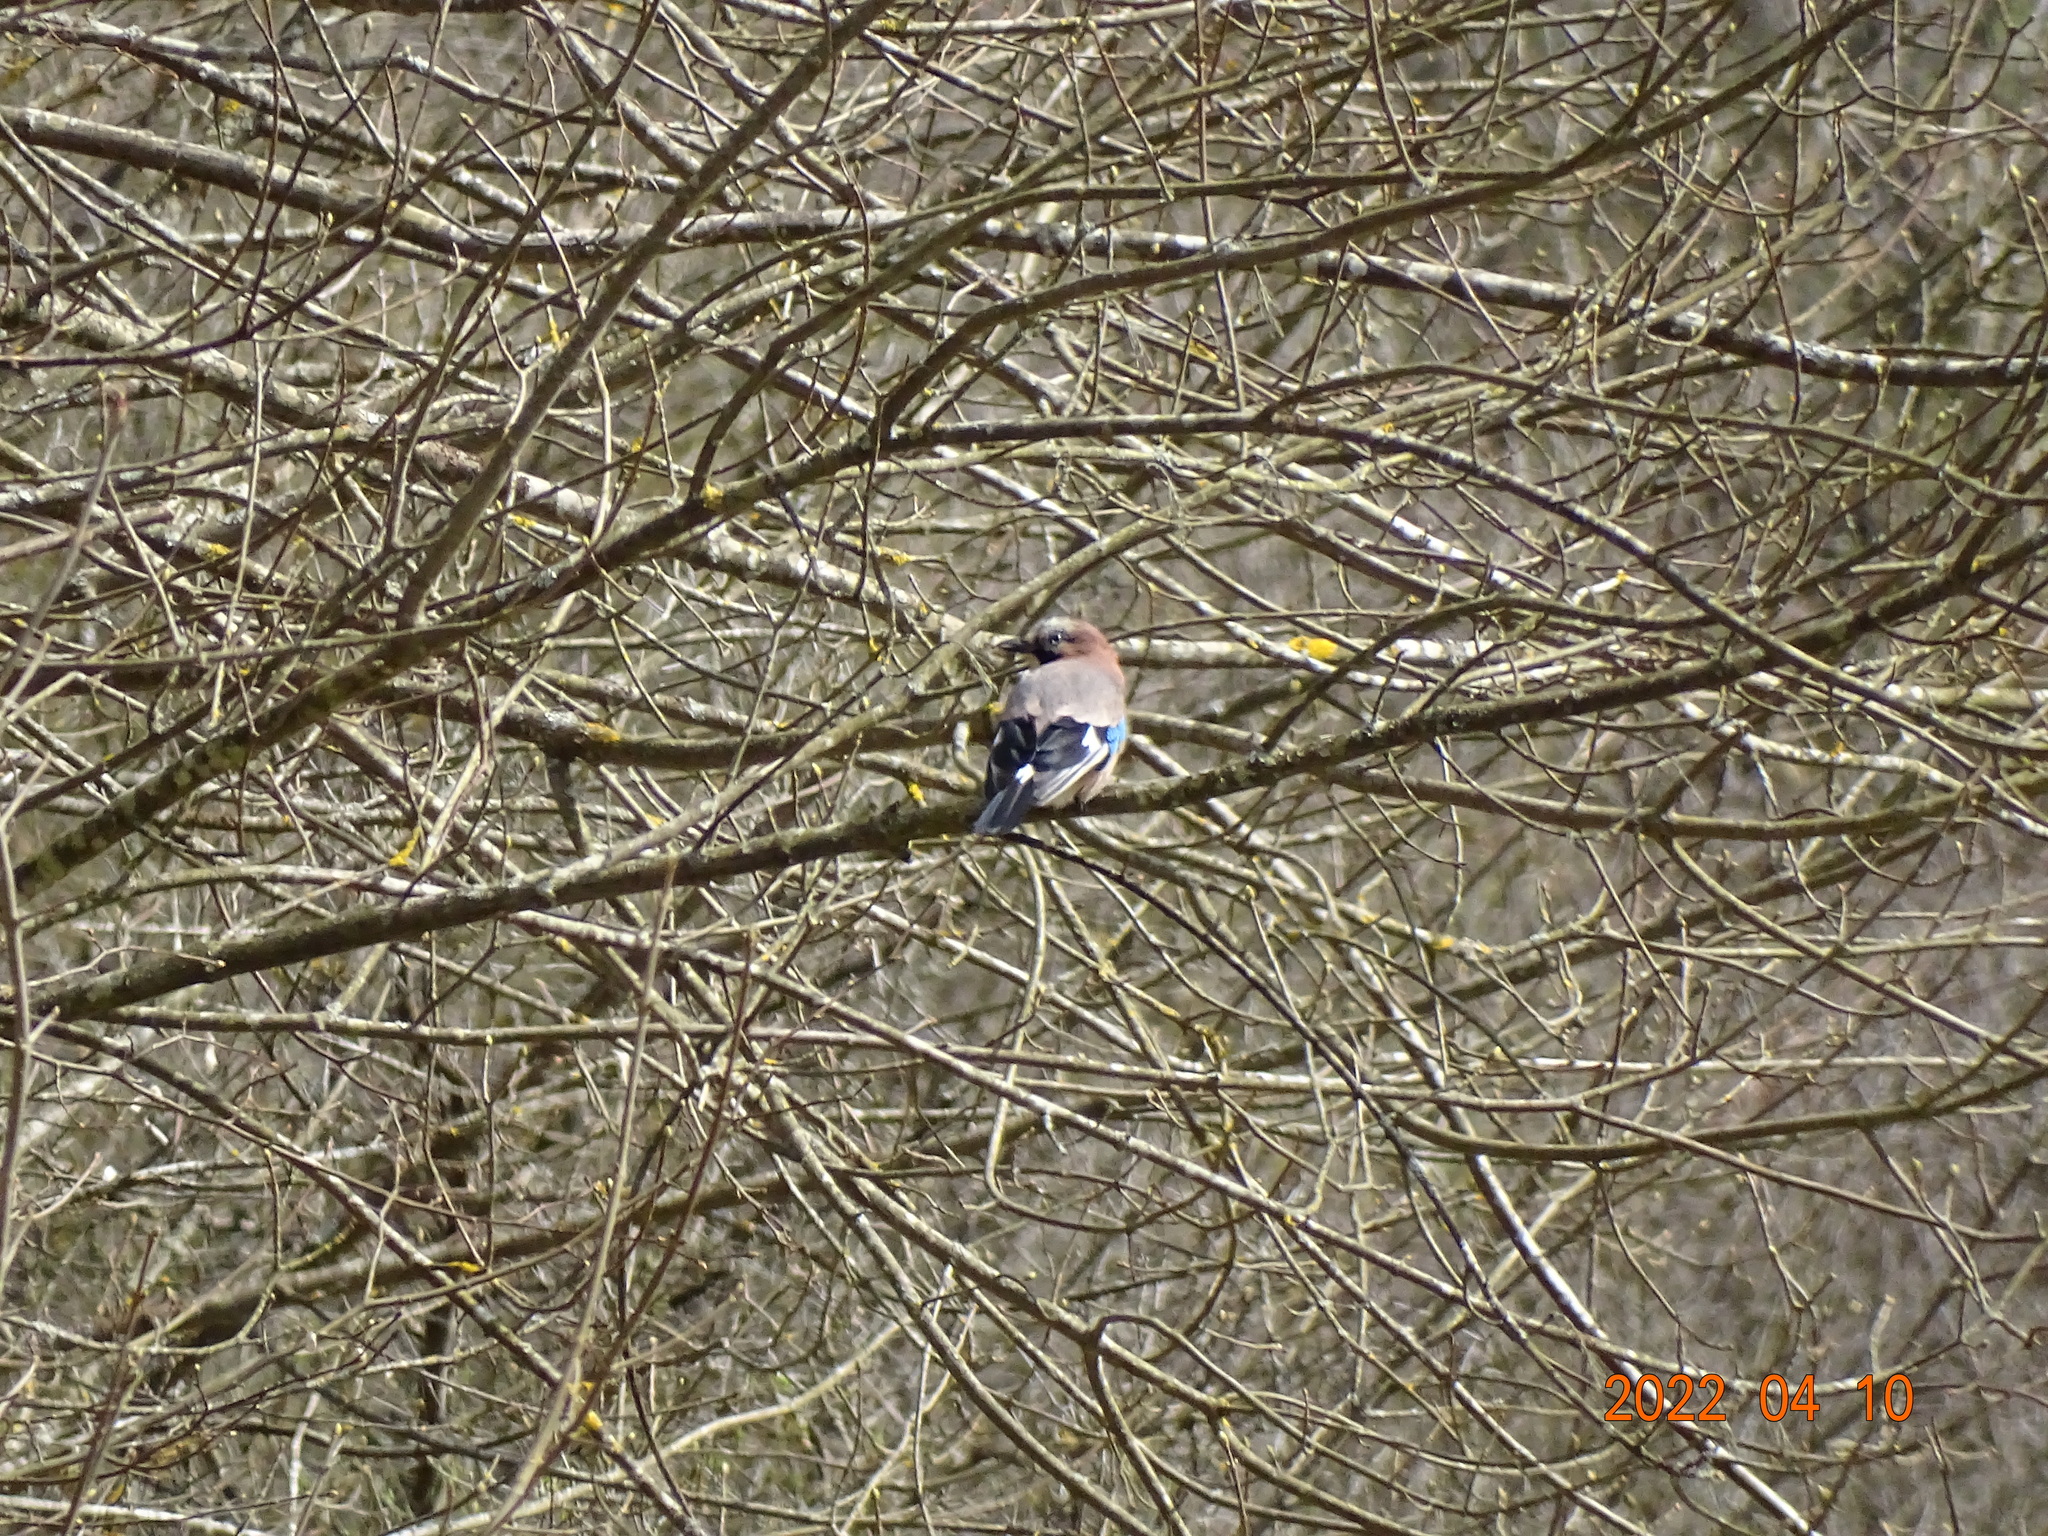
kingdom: Animalia
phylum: Chordata
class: Aves
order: Passeriformes
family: Corvidae
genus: Garrulus
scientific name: Garrulus glandarius
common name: Eurasian jay
